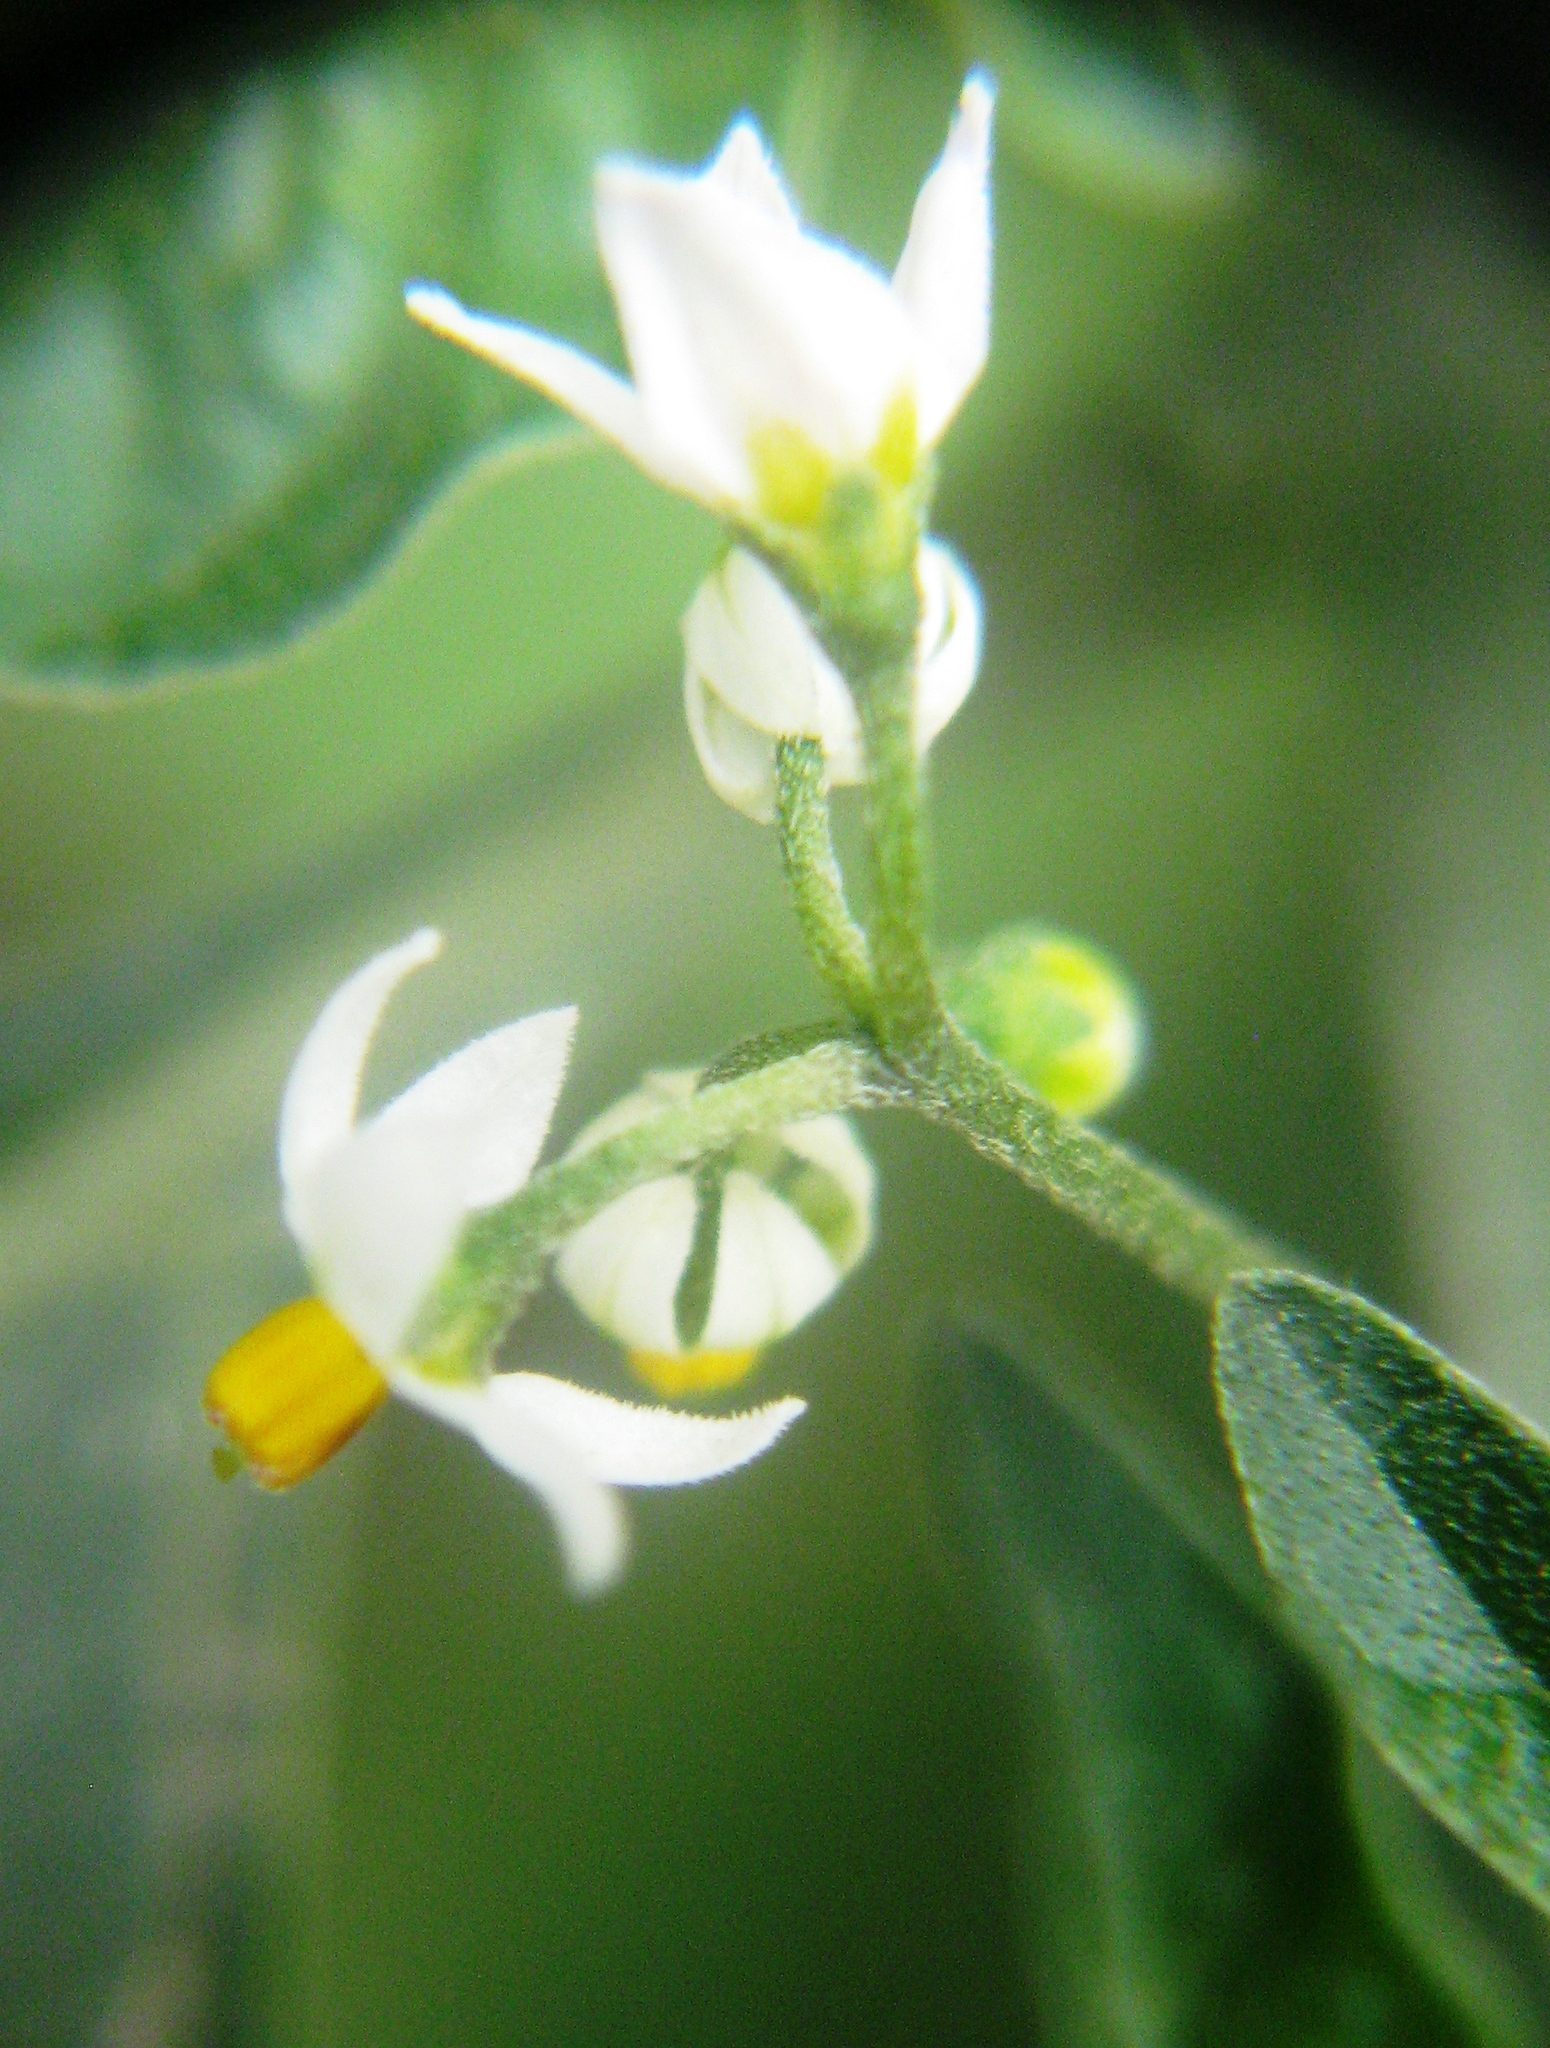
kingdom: Plantae
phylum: Tracheophyta
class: Magnoliopsida
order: Solanales
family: Solanaceae
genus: Solanum
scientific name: Solanum americanum
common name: American black nightshade
